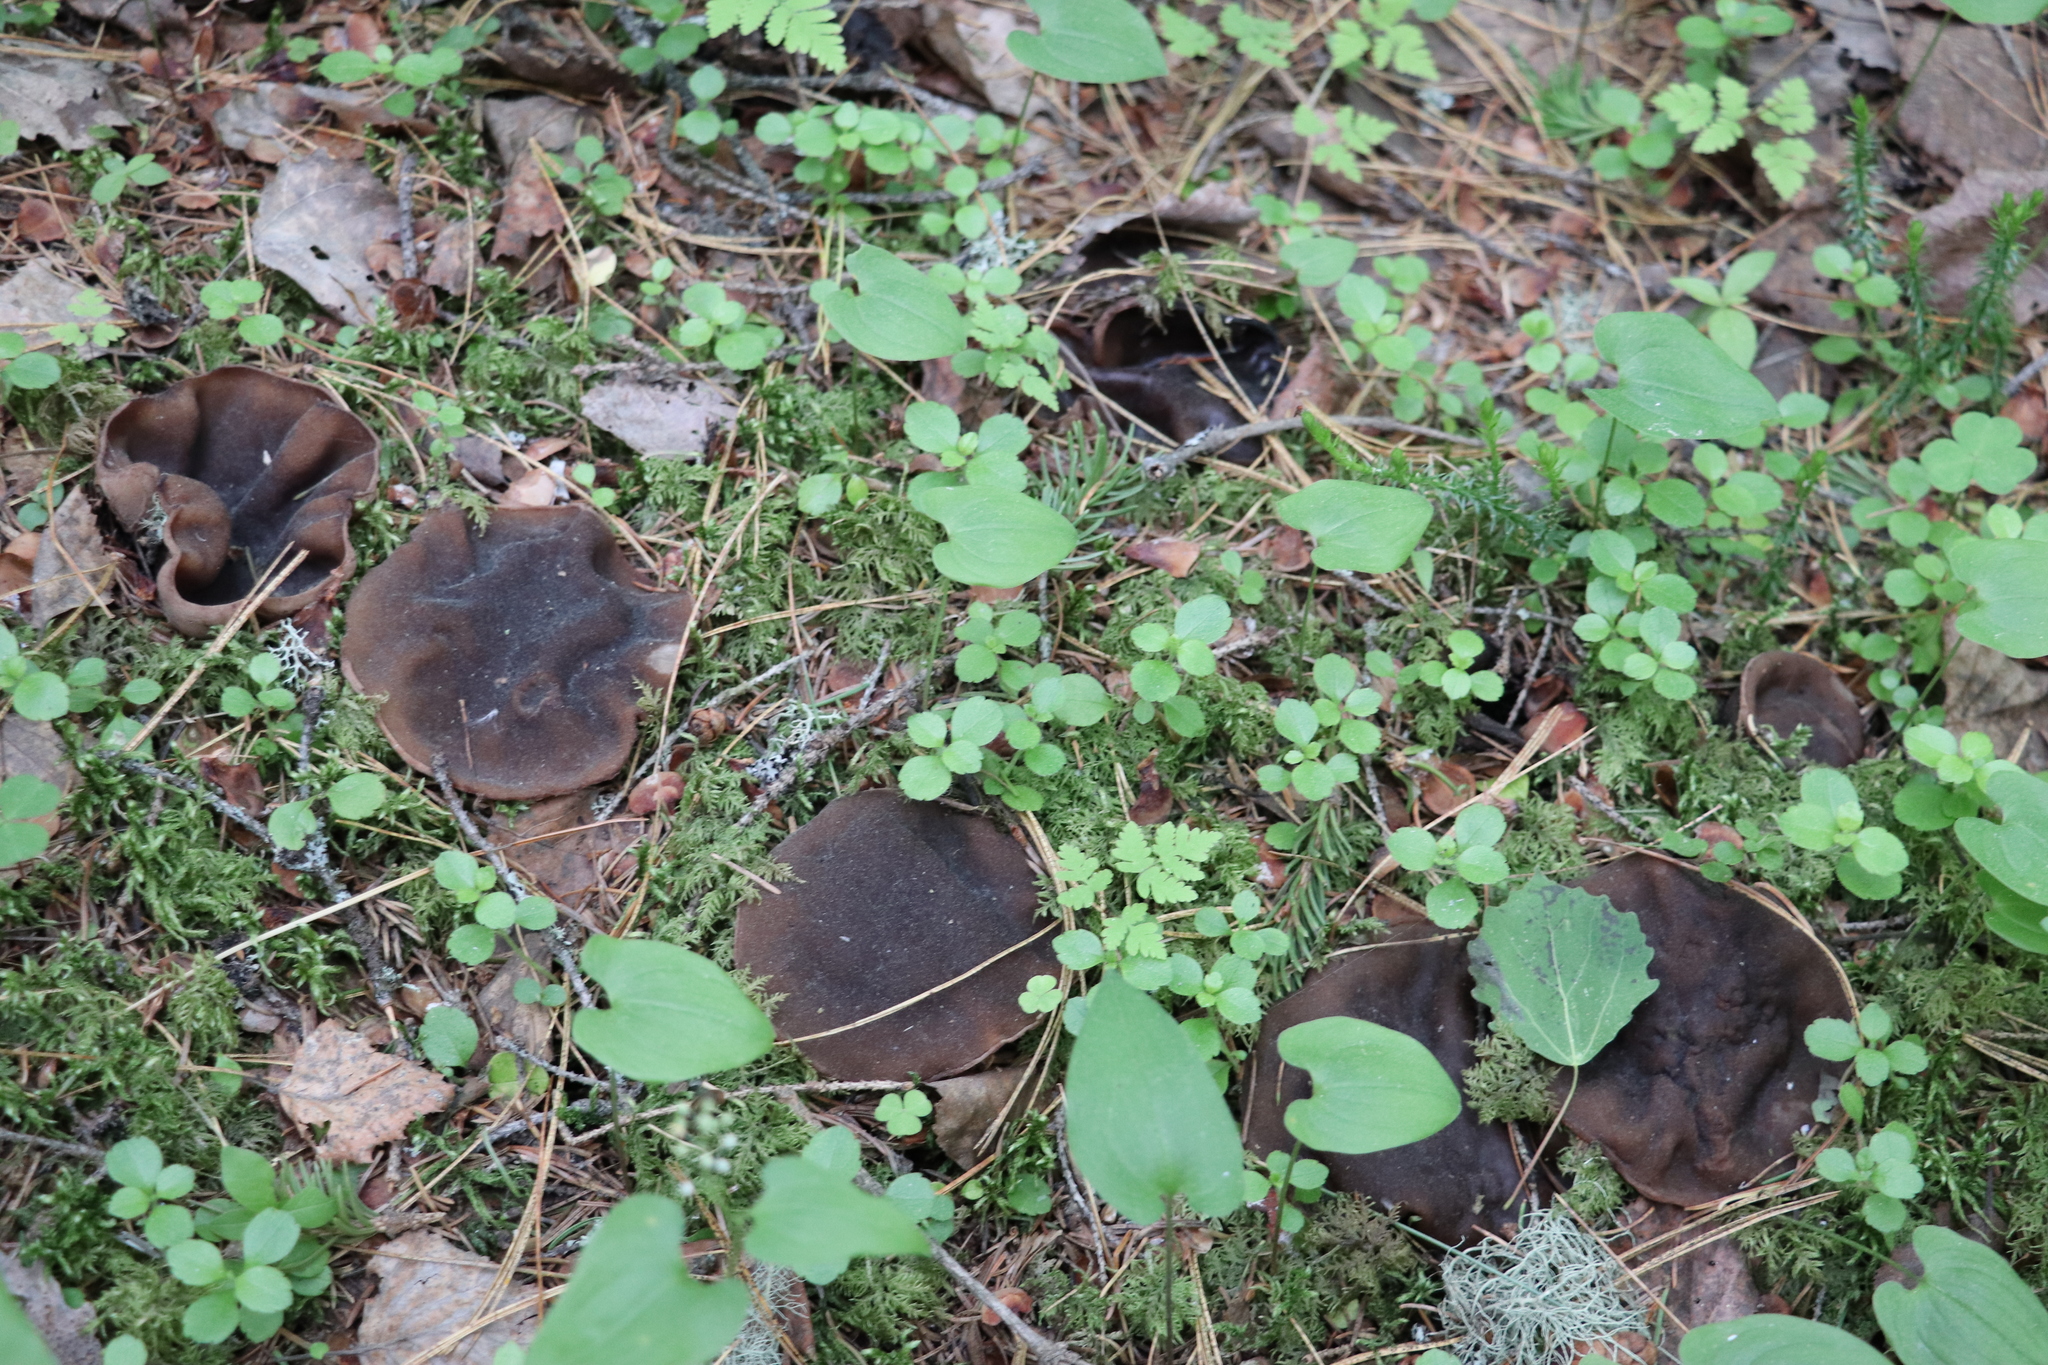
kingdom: Fungi
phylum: Ascomycota
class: Pezizomycetes
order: Pezizales
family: Sarcosomataceae
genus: Sarcosoma
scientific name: Sarcosoma globosum
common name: Charred-pancake cup
